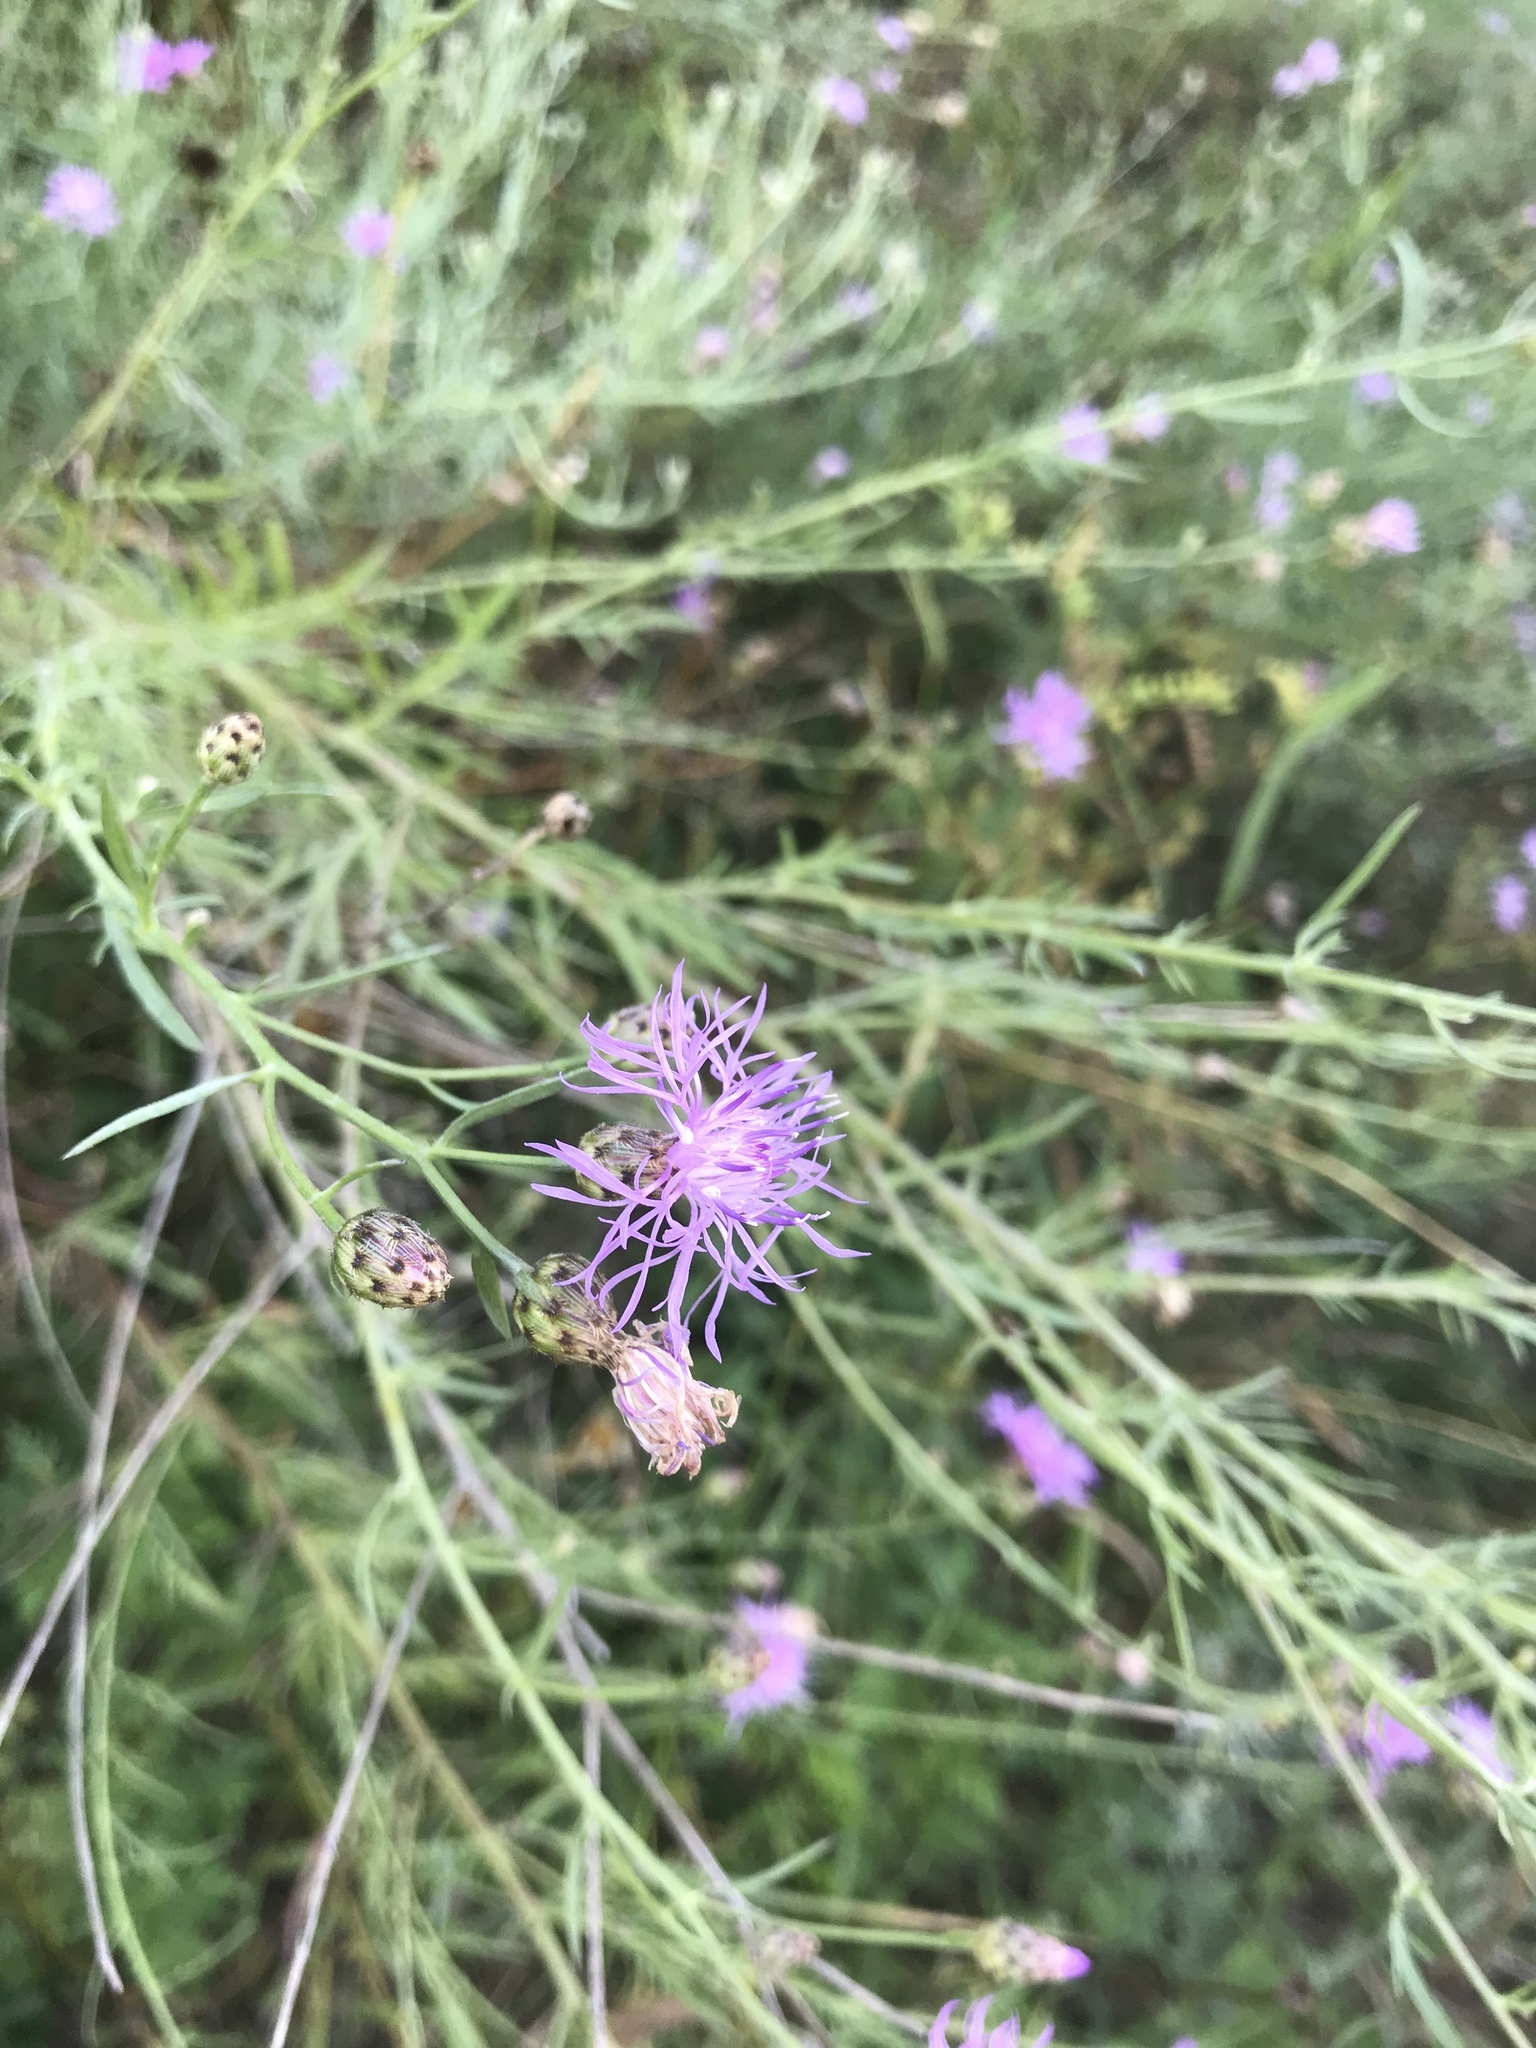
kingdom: Plantae
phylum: Tracheophyta
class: Magnoliopsida
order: Asterales
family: Asteraceae
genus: Centaurea
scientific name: Centaurea stoebe
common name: Spotted knapweed
